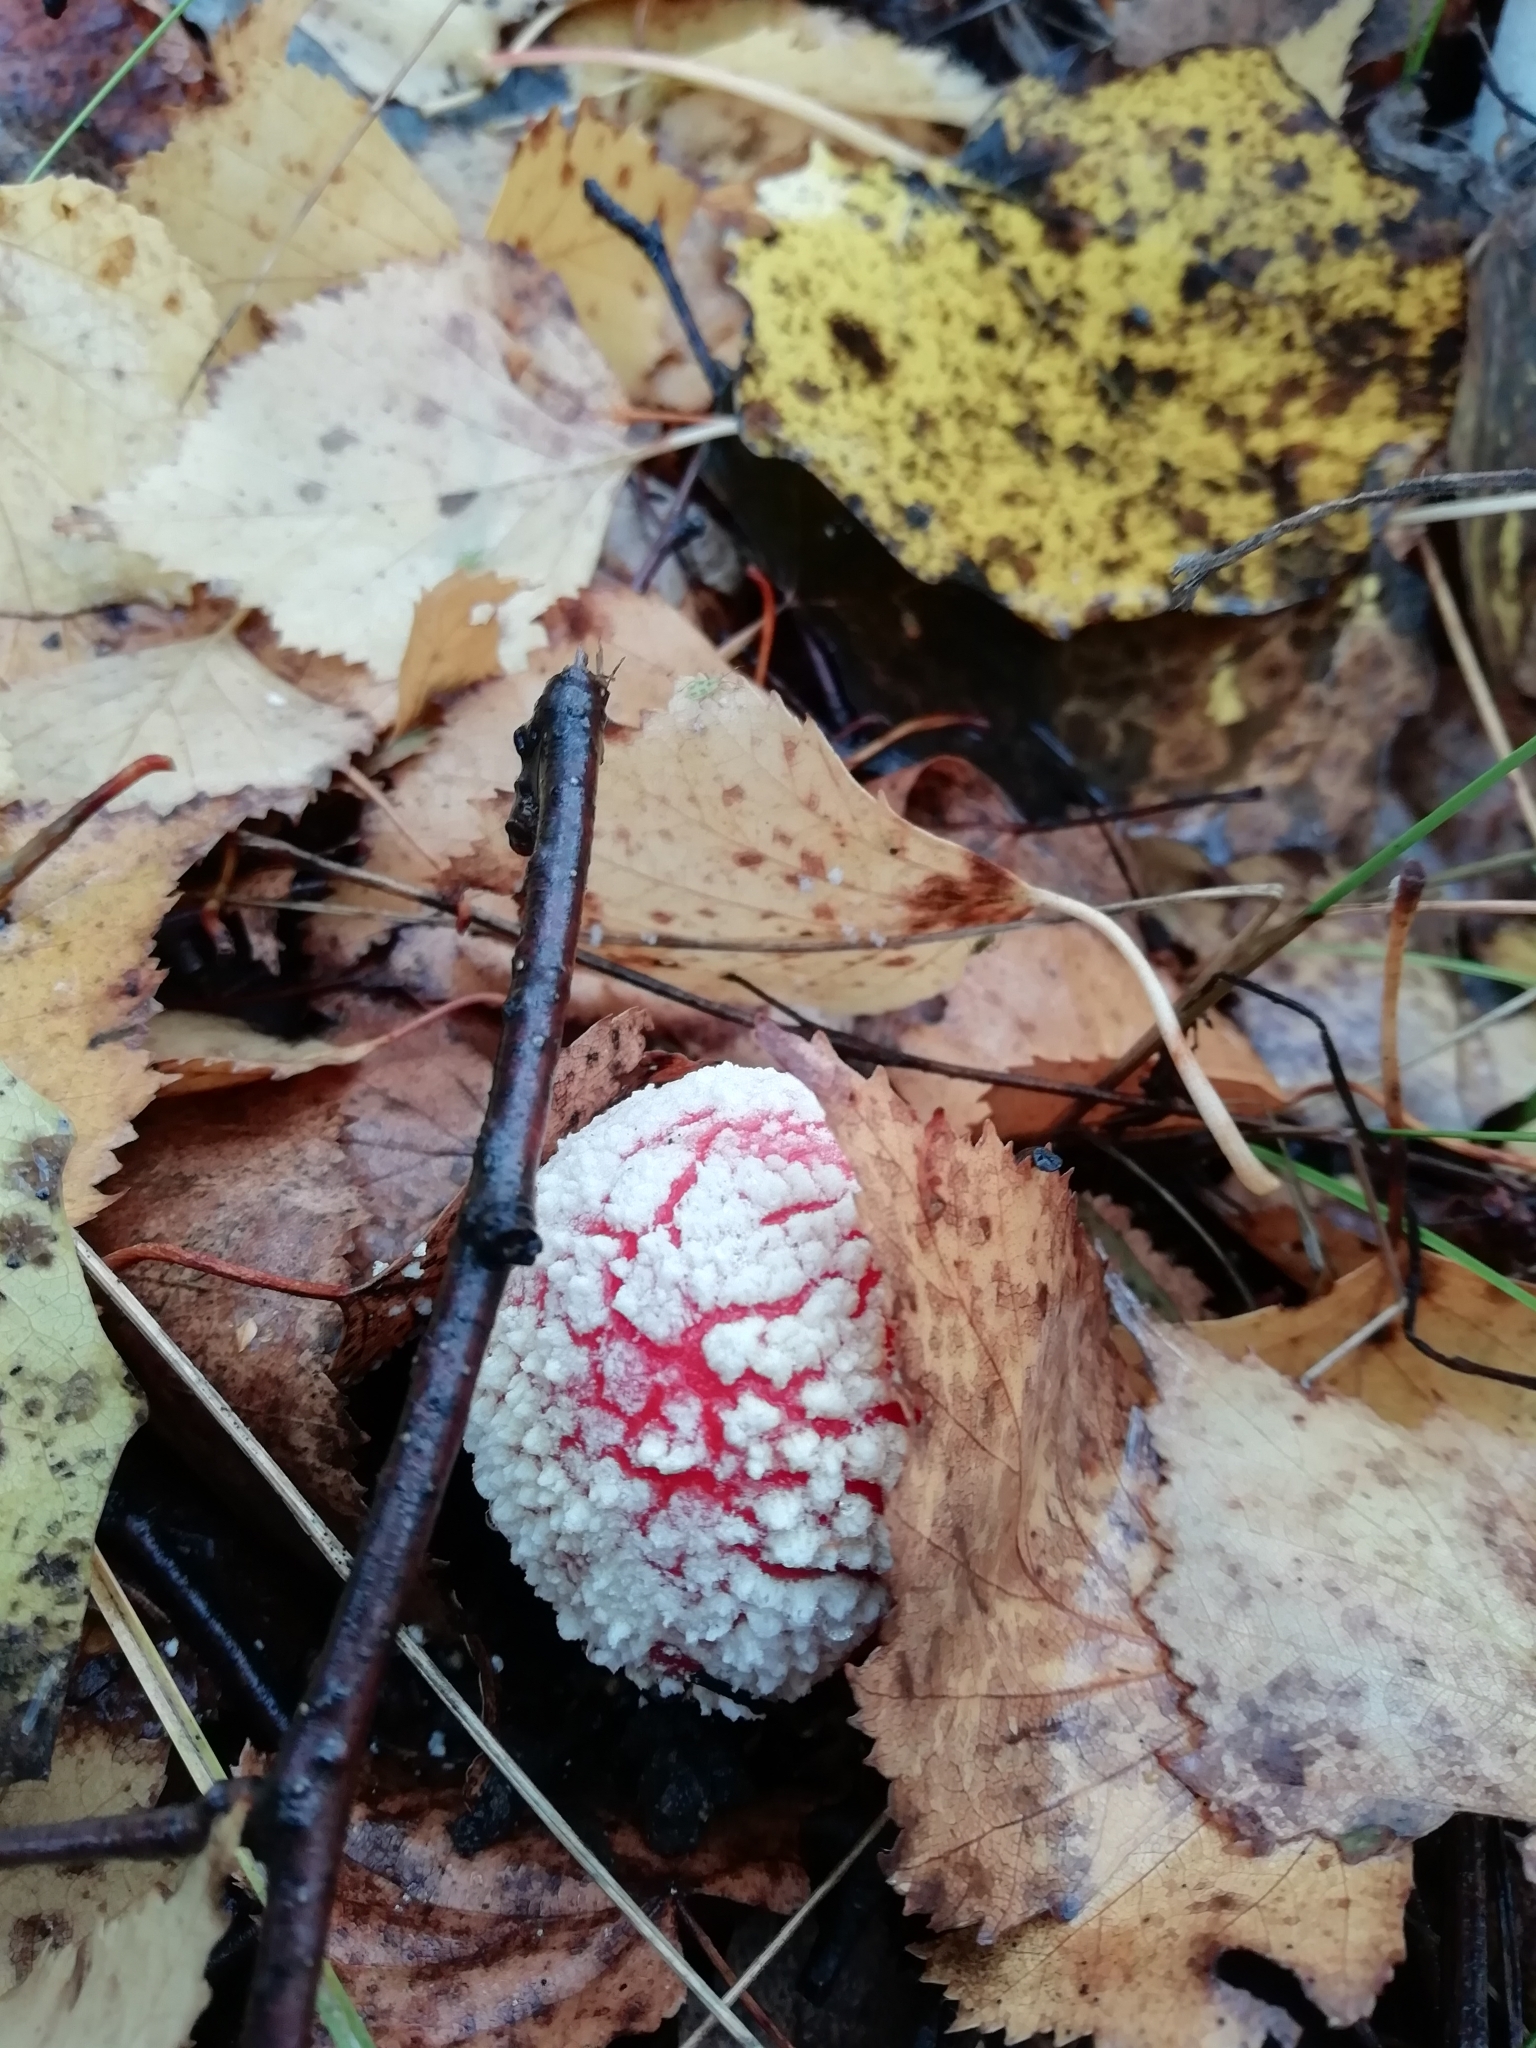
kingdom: Fungi
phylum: Basidiomycota
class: Agaricomycetes
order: Agaricales
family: Amanitaceae
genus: Amanita
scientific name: Amanita muscaria
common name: Fly agaric
